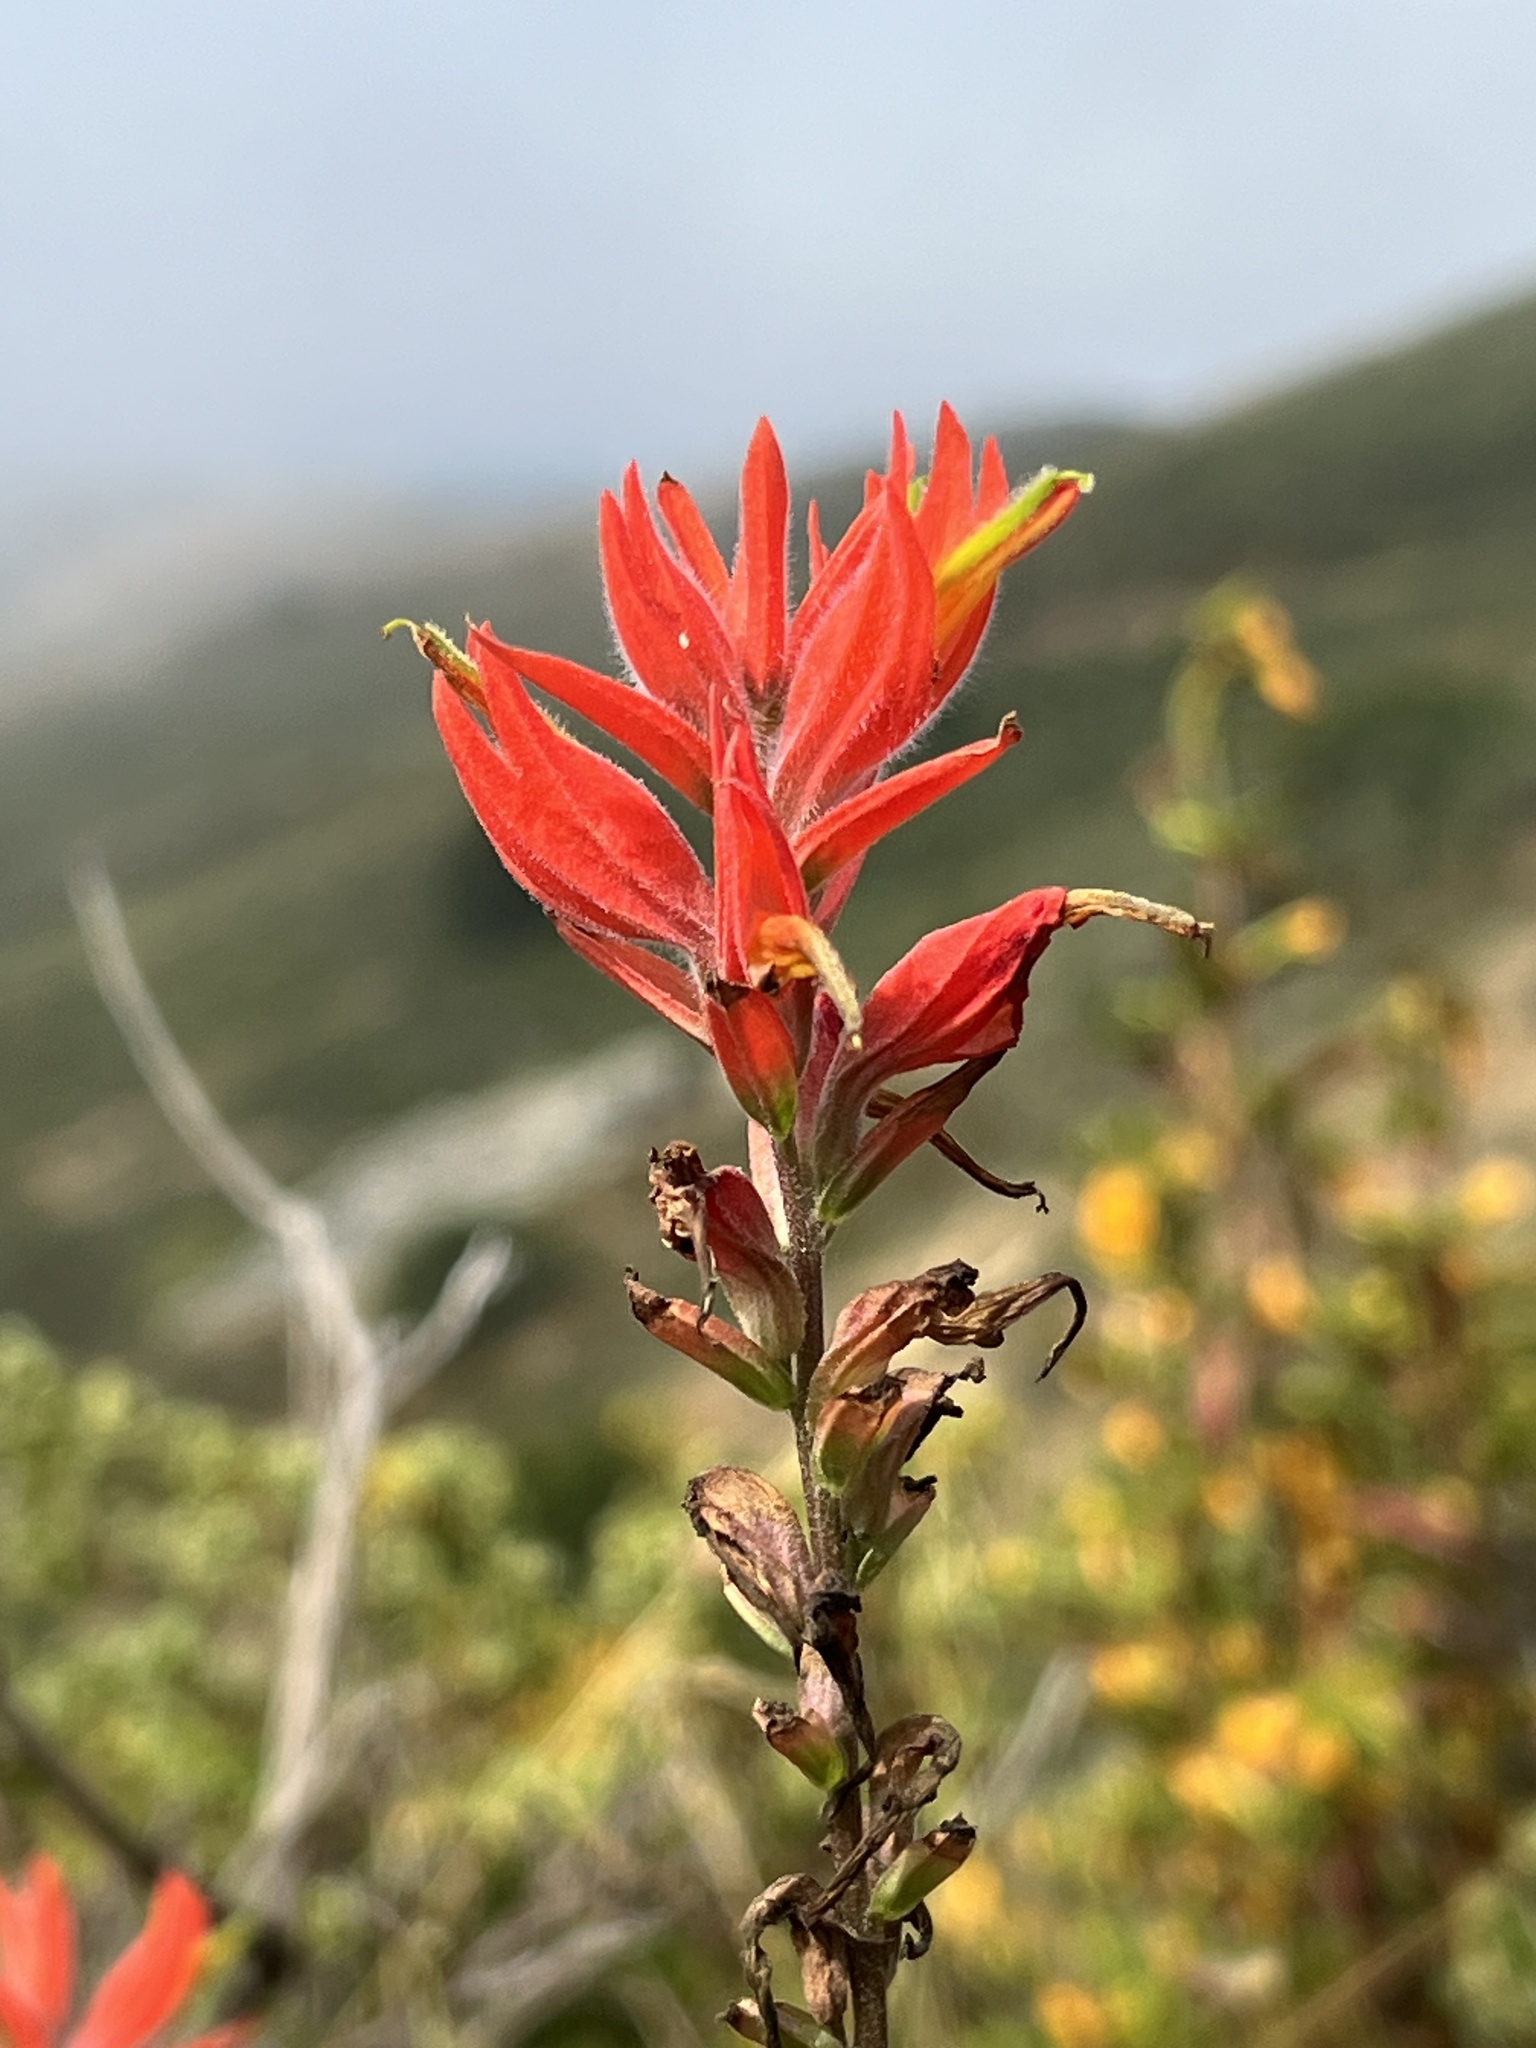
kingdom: Plantae
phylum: Tracheophyta
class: Magnoliopsida
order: Lamiales
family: Orobanchaceae
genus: Castilleja
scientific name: Castilleja subinclusa
